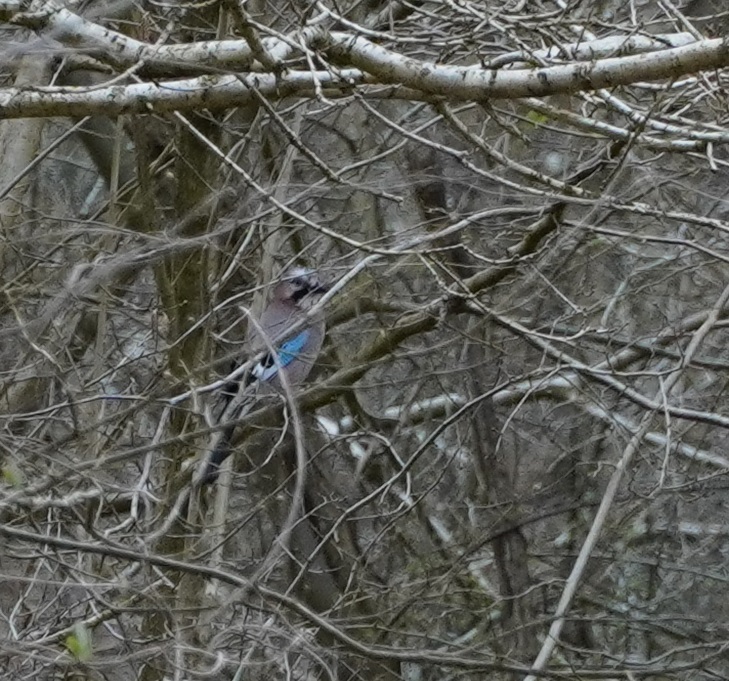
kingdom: Animalia
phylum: Chordata
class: Aves
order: Passeriformes
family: Corvidae
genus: Garrulus
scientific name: Garrulus glandarius
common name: Eurasian jay
